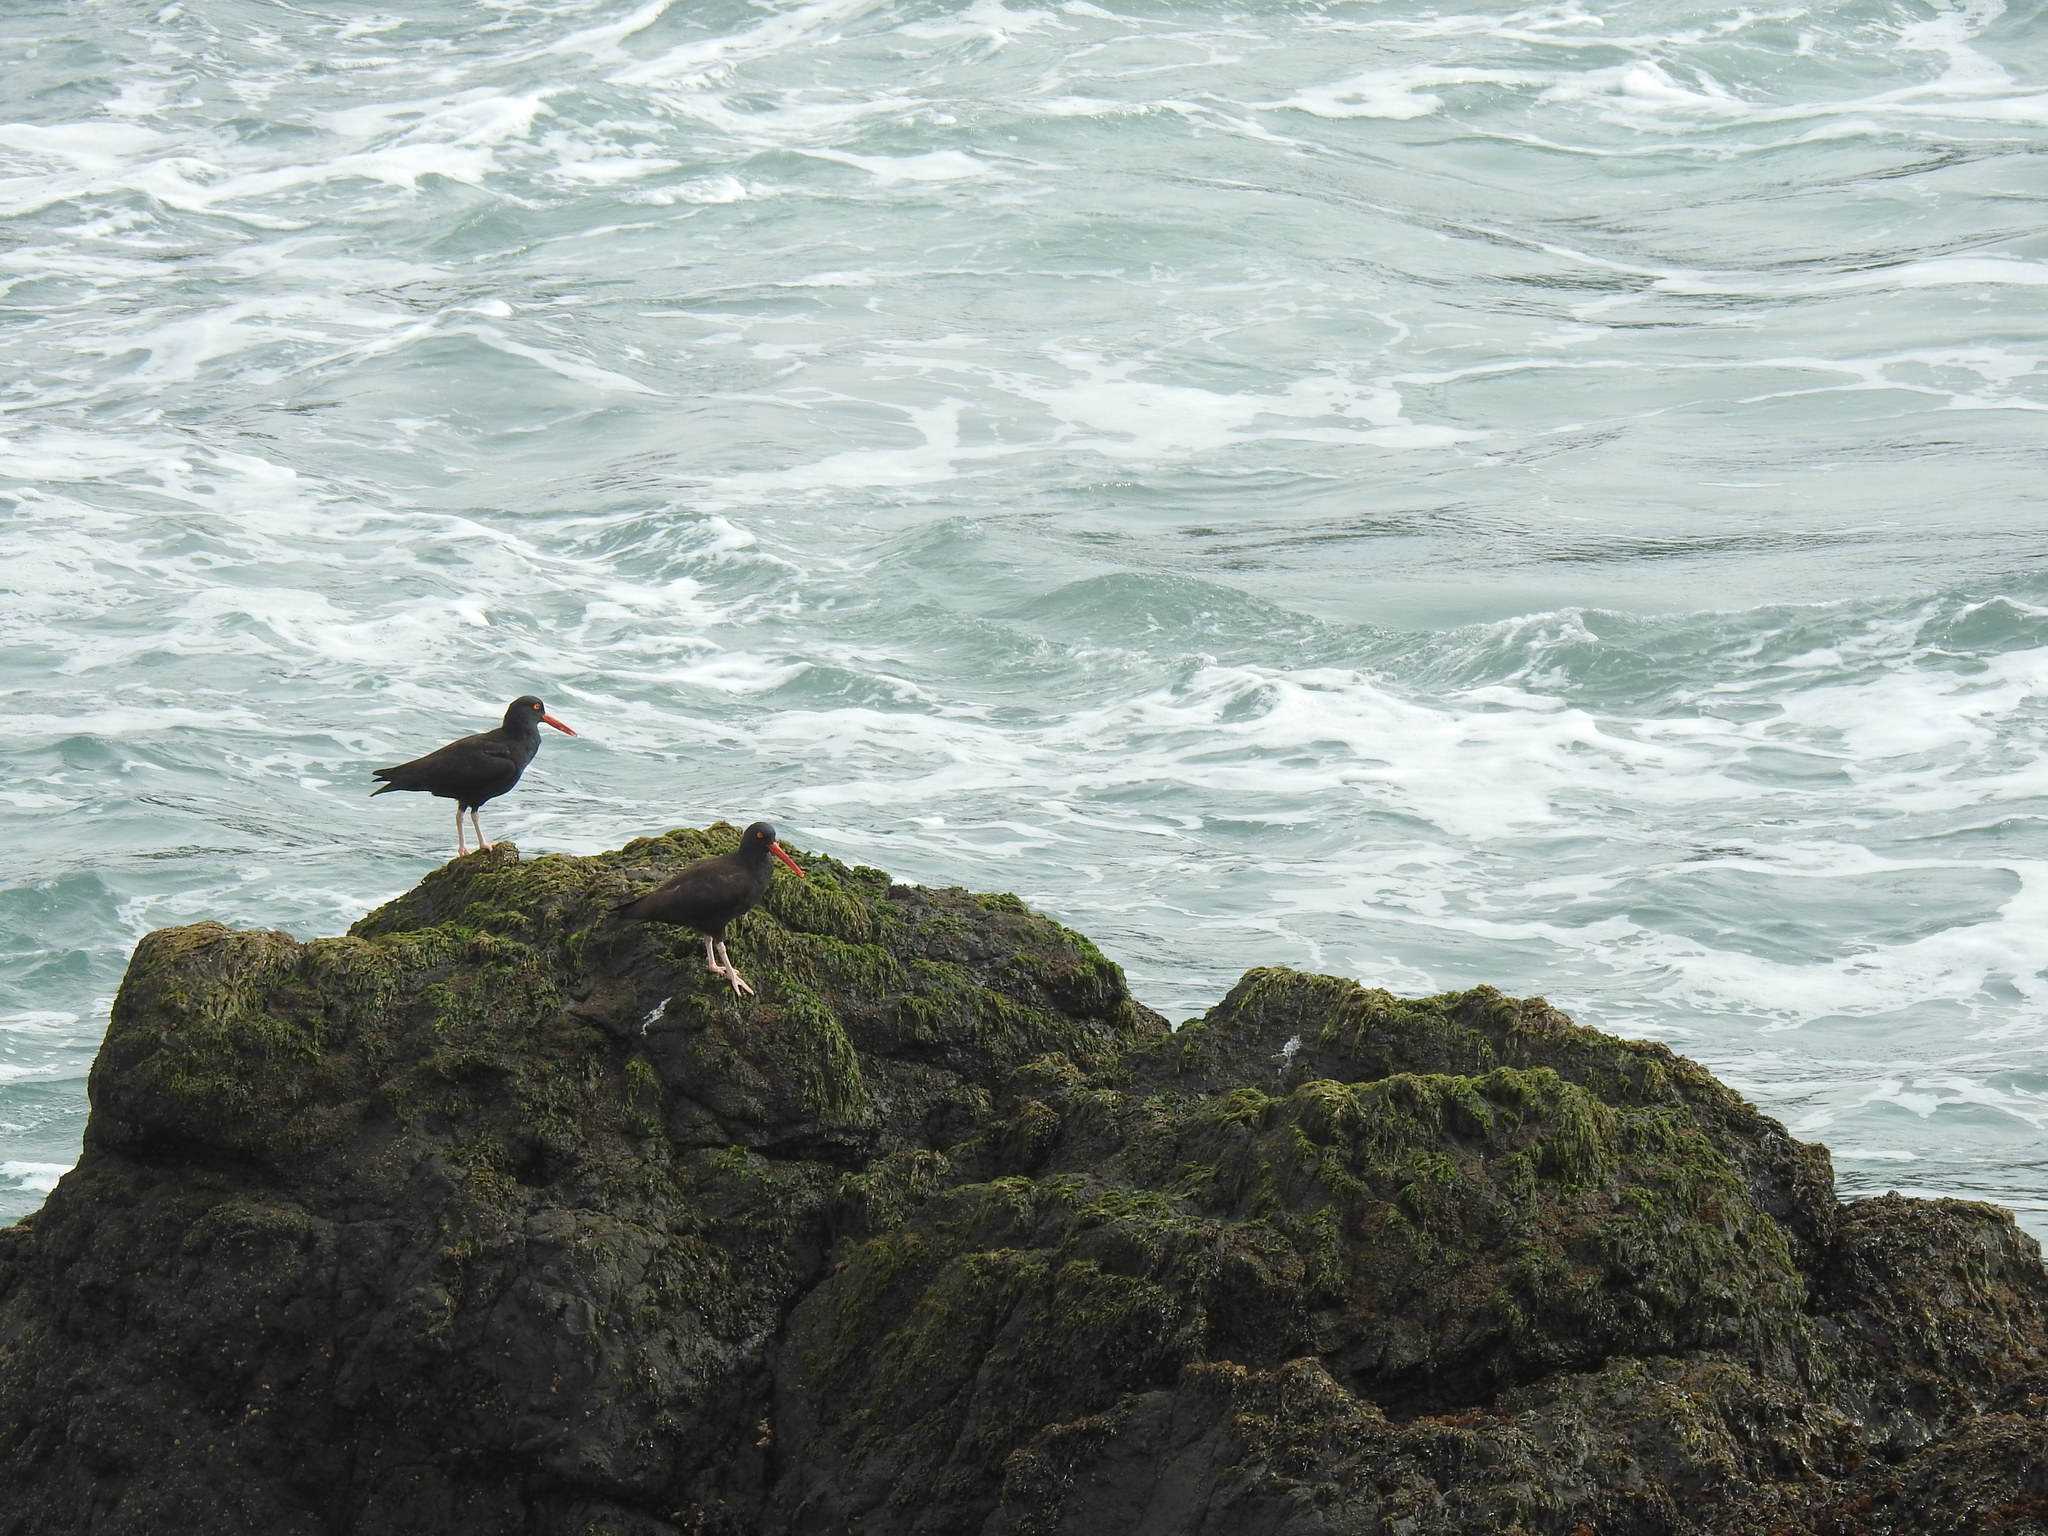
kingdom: Animalia
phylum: Chordata
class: Aves
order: Charadriiformes
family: Haematopodidae
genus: Haematopus
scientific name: Haematopus bachmani
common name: Black oystercatcher
